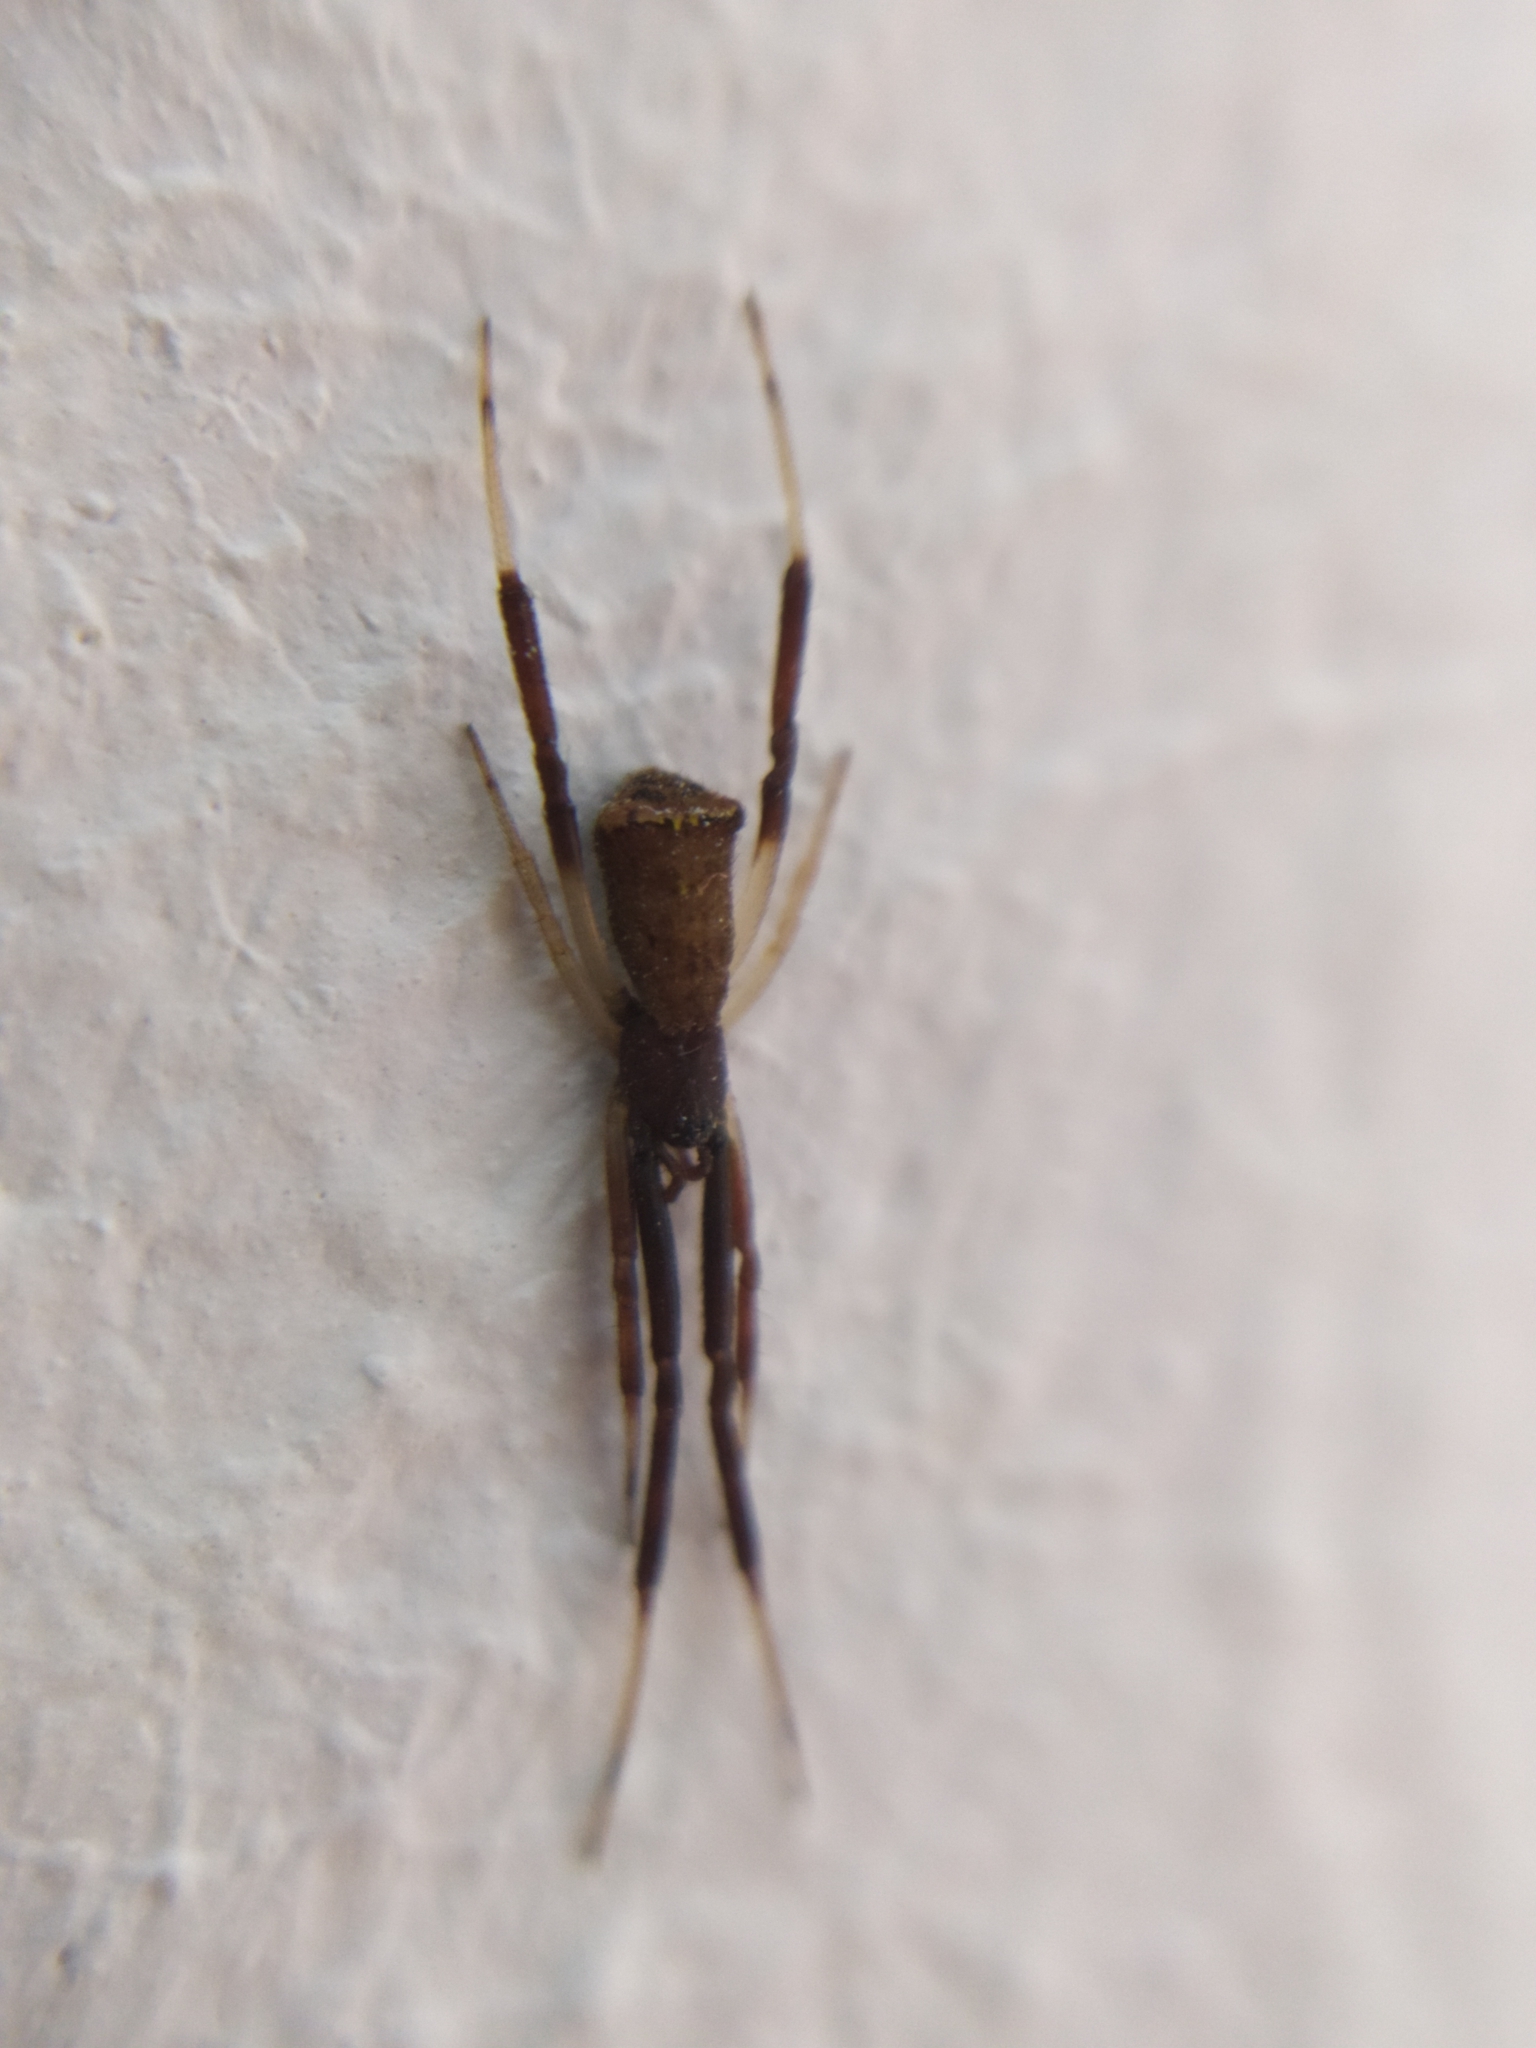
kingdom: Animalia
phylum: Arthropoda
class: Arachnida
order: Araneae
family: Theridiidae
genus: Episinus
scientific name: Episinus truncatus
